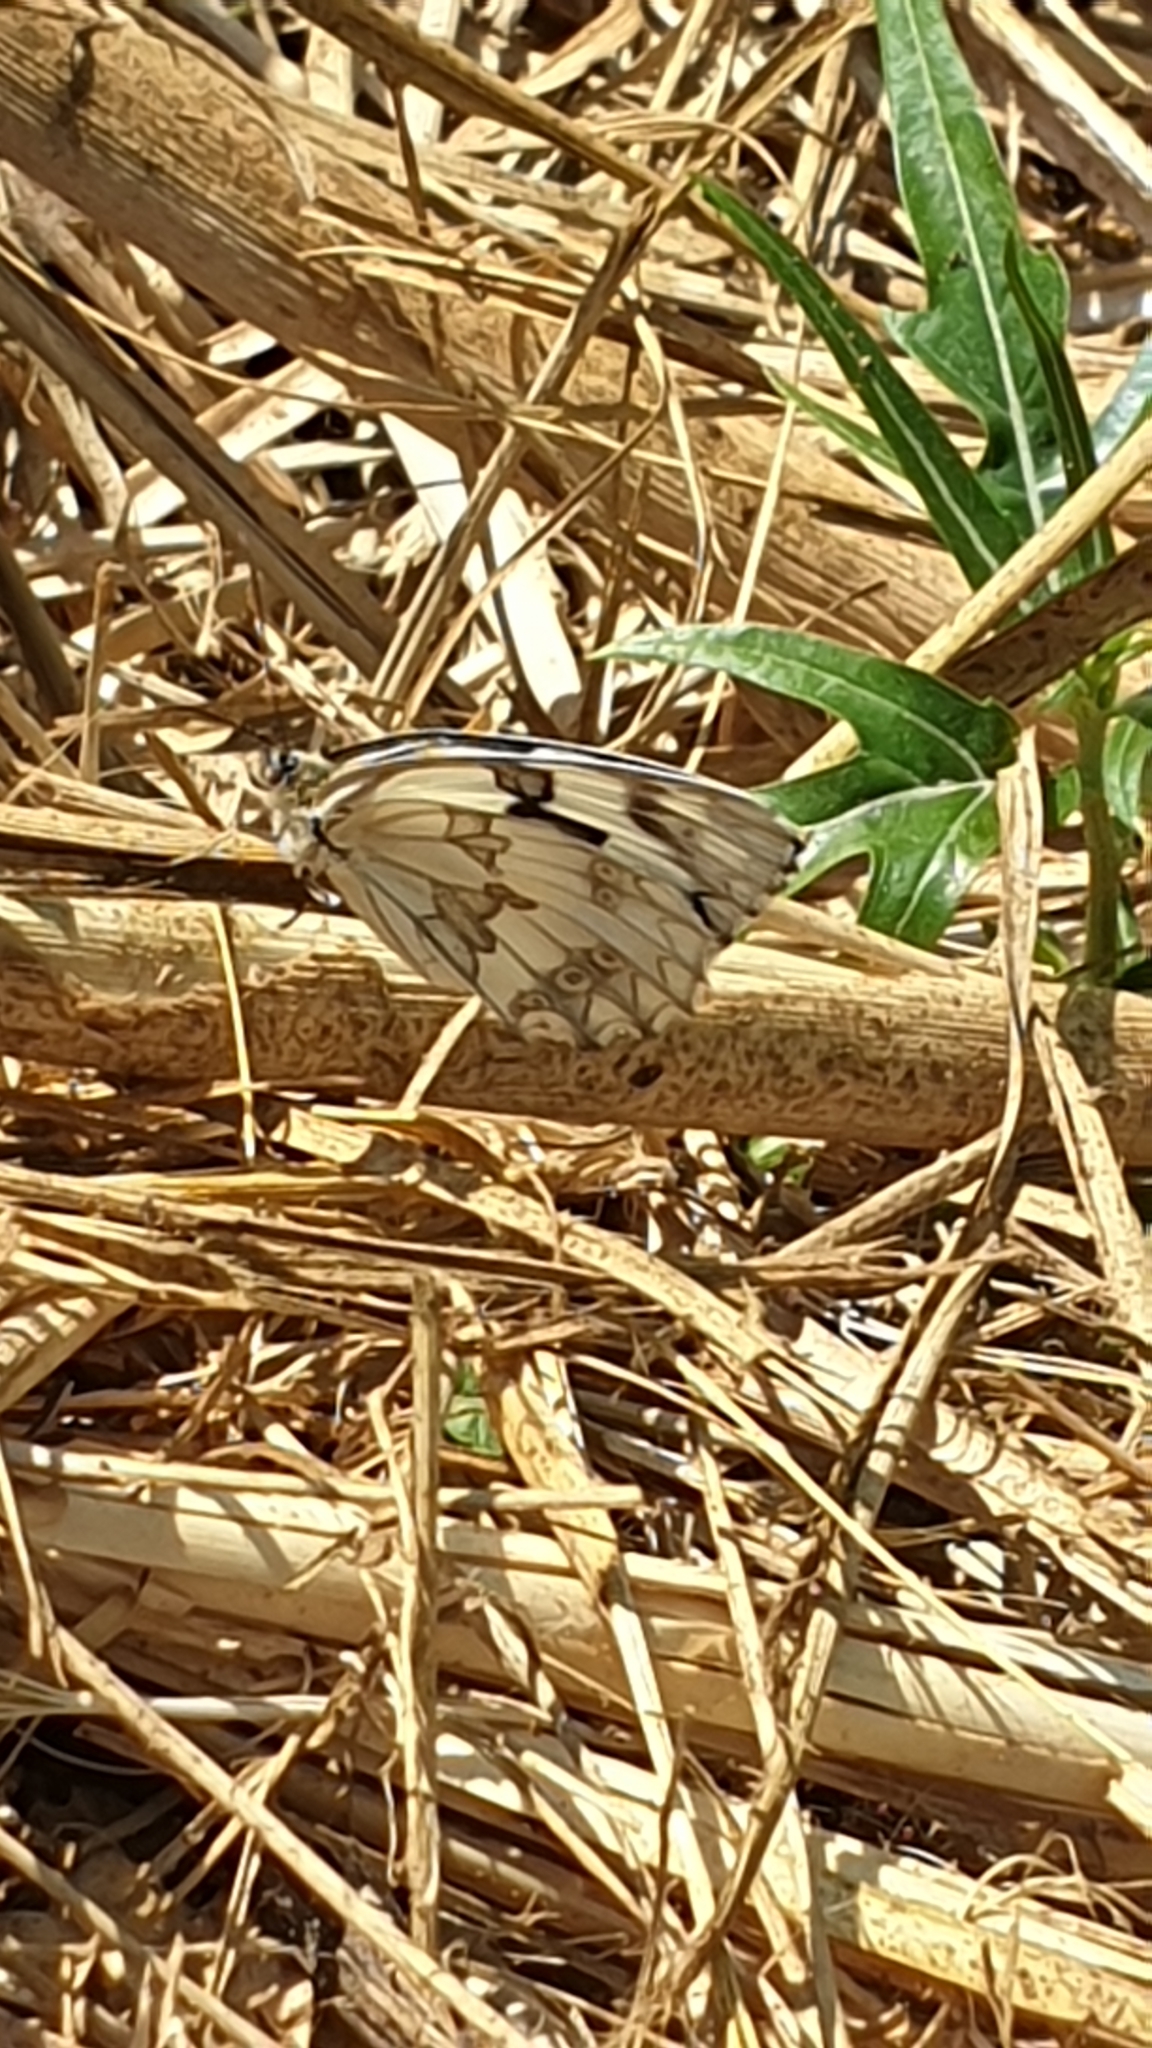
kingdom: Animalia
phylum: Arthropoda
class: Insecta
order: Lepidoptera
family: Nymphalidae
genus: Melanargia
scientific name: Melanargia lachesis
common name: Iberian marbled white
